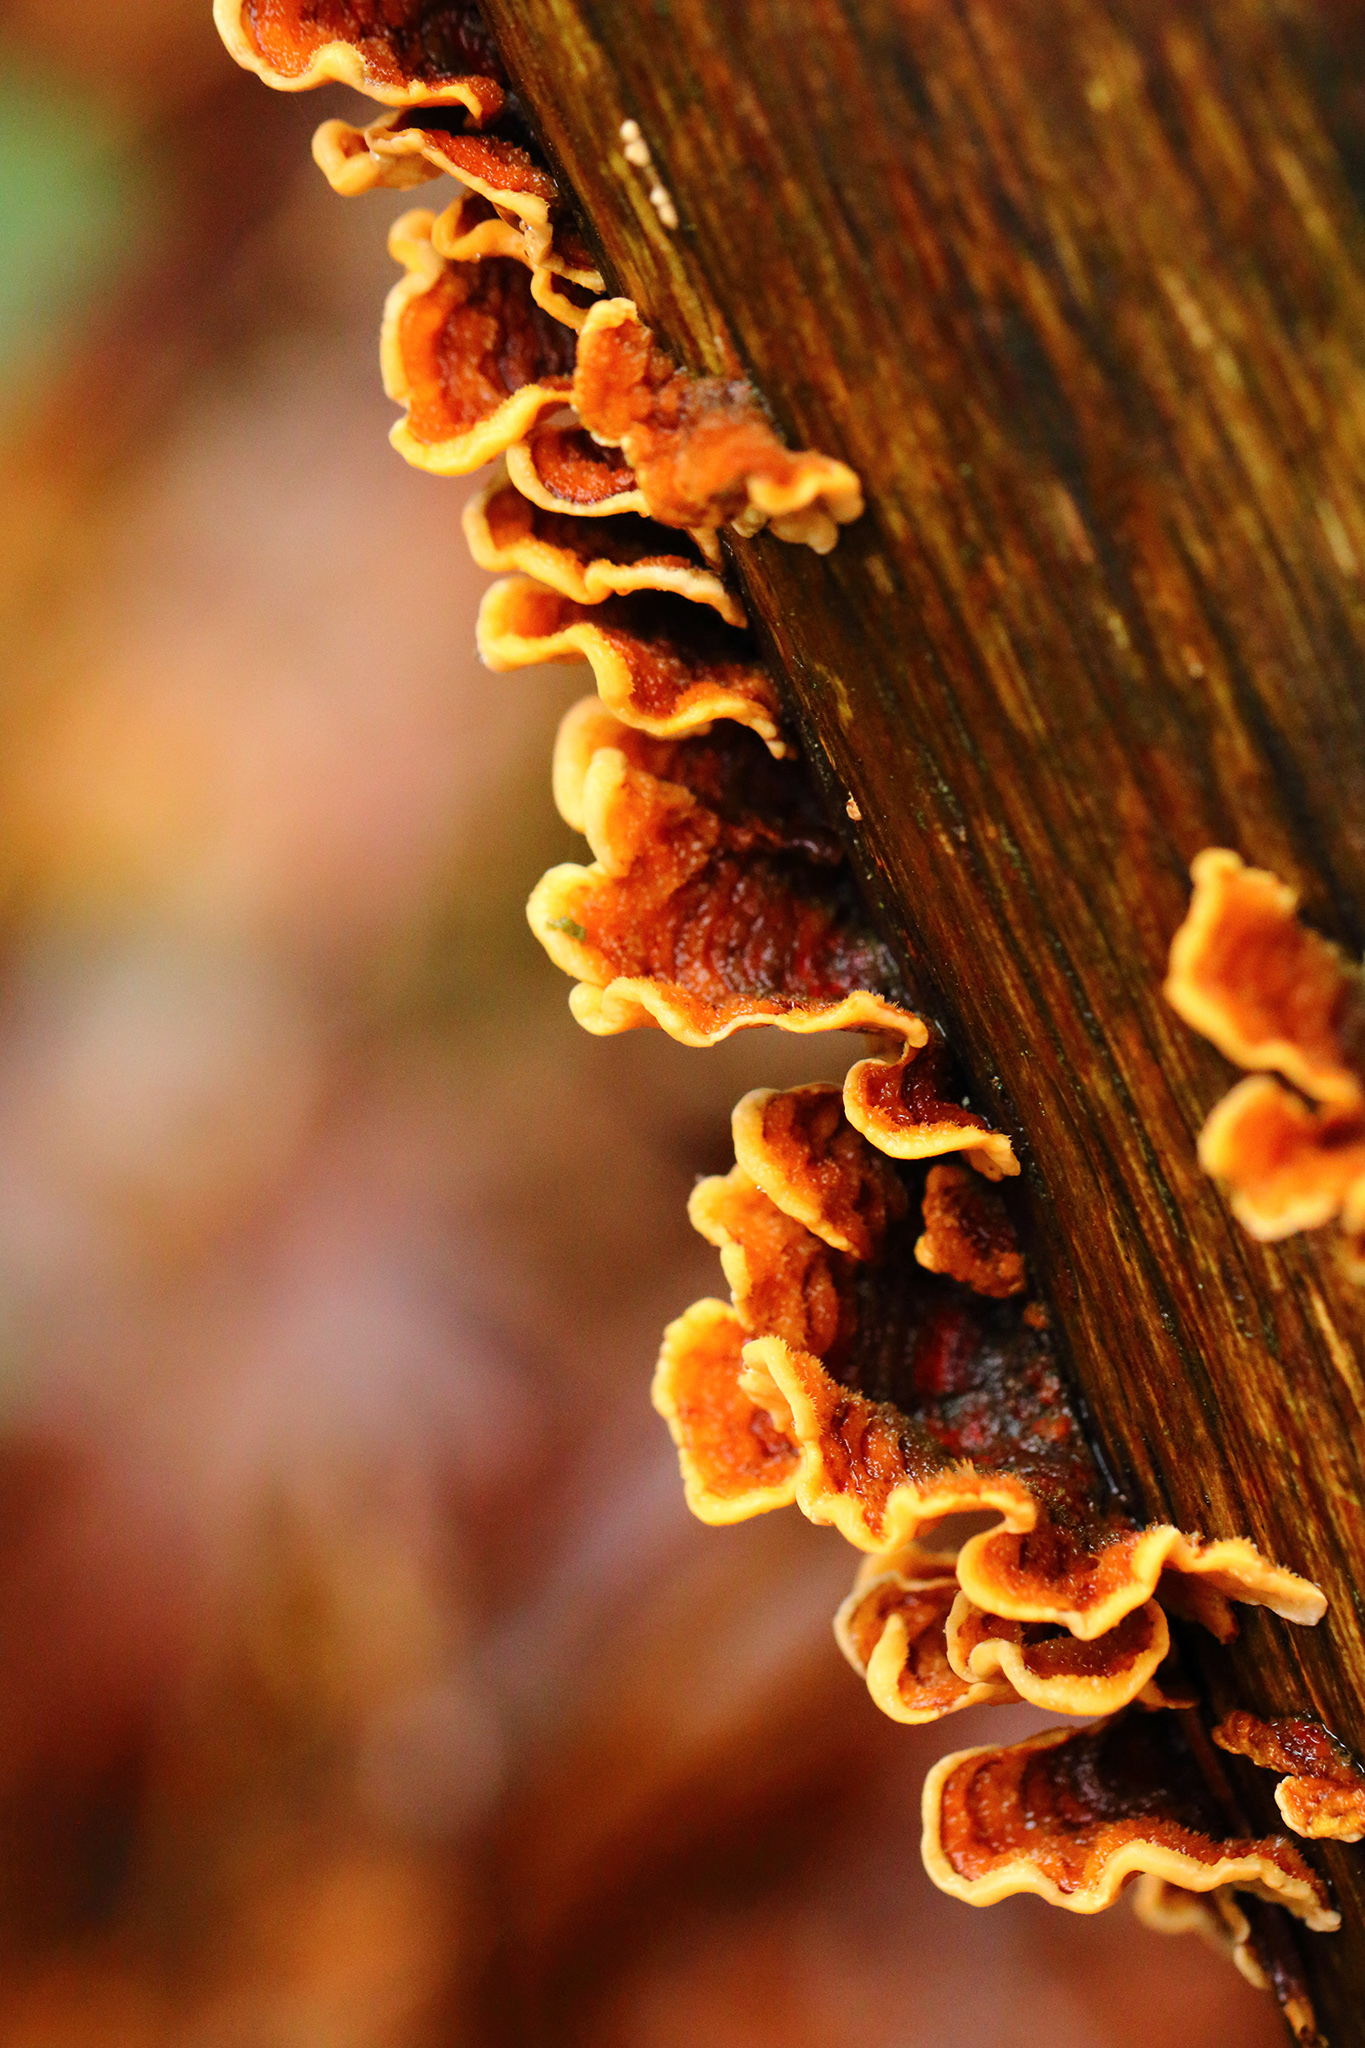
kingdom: Fungi
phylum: Basidiomycota
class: Agaricomycetes
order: Russulales
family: Stereaceae
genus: Stereum
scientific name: Stereum hirsutum
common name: Hairy curtain crust
